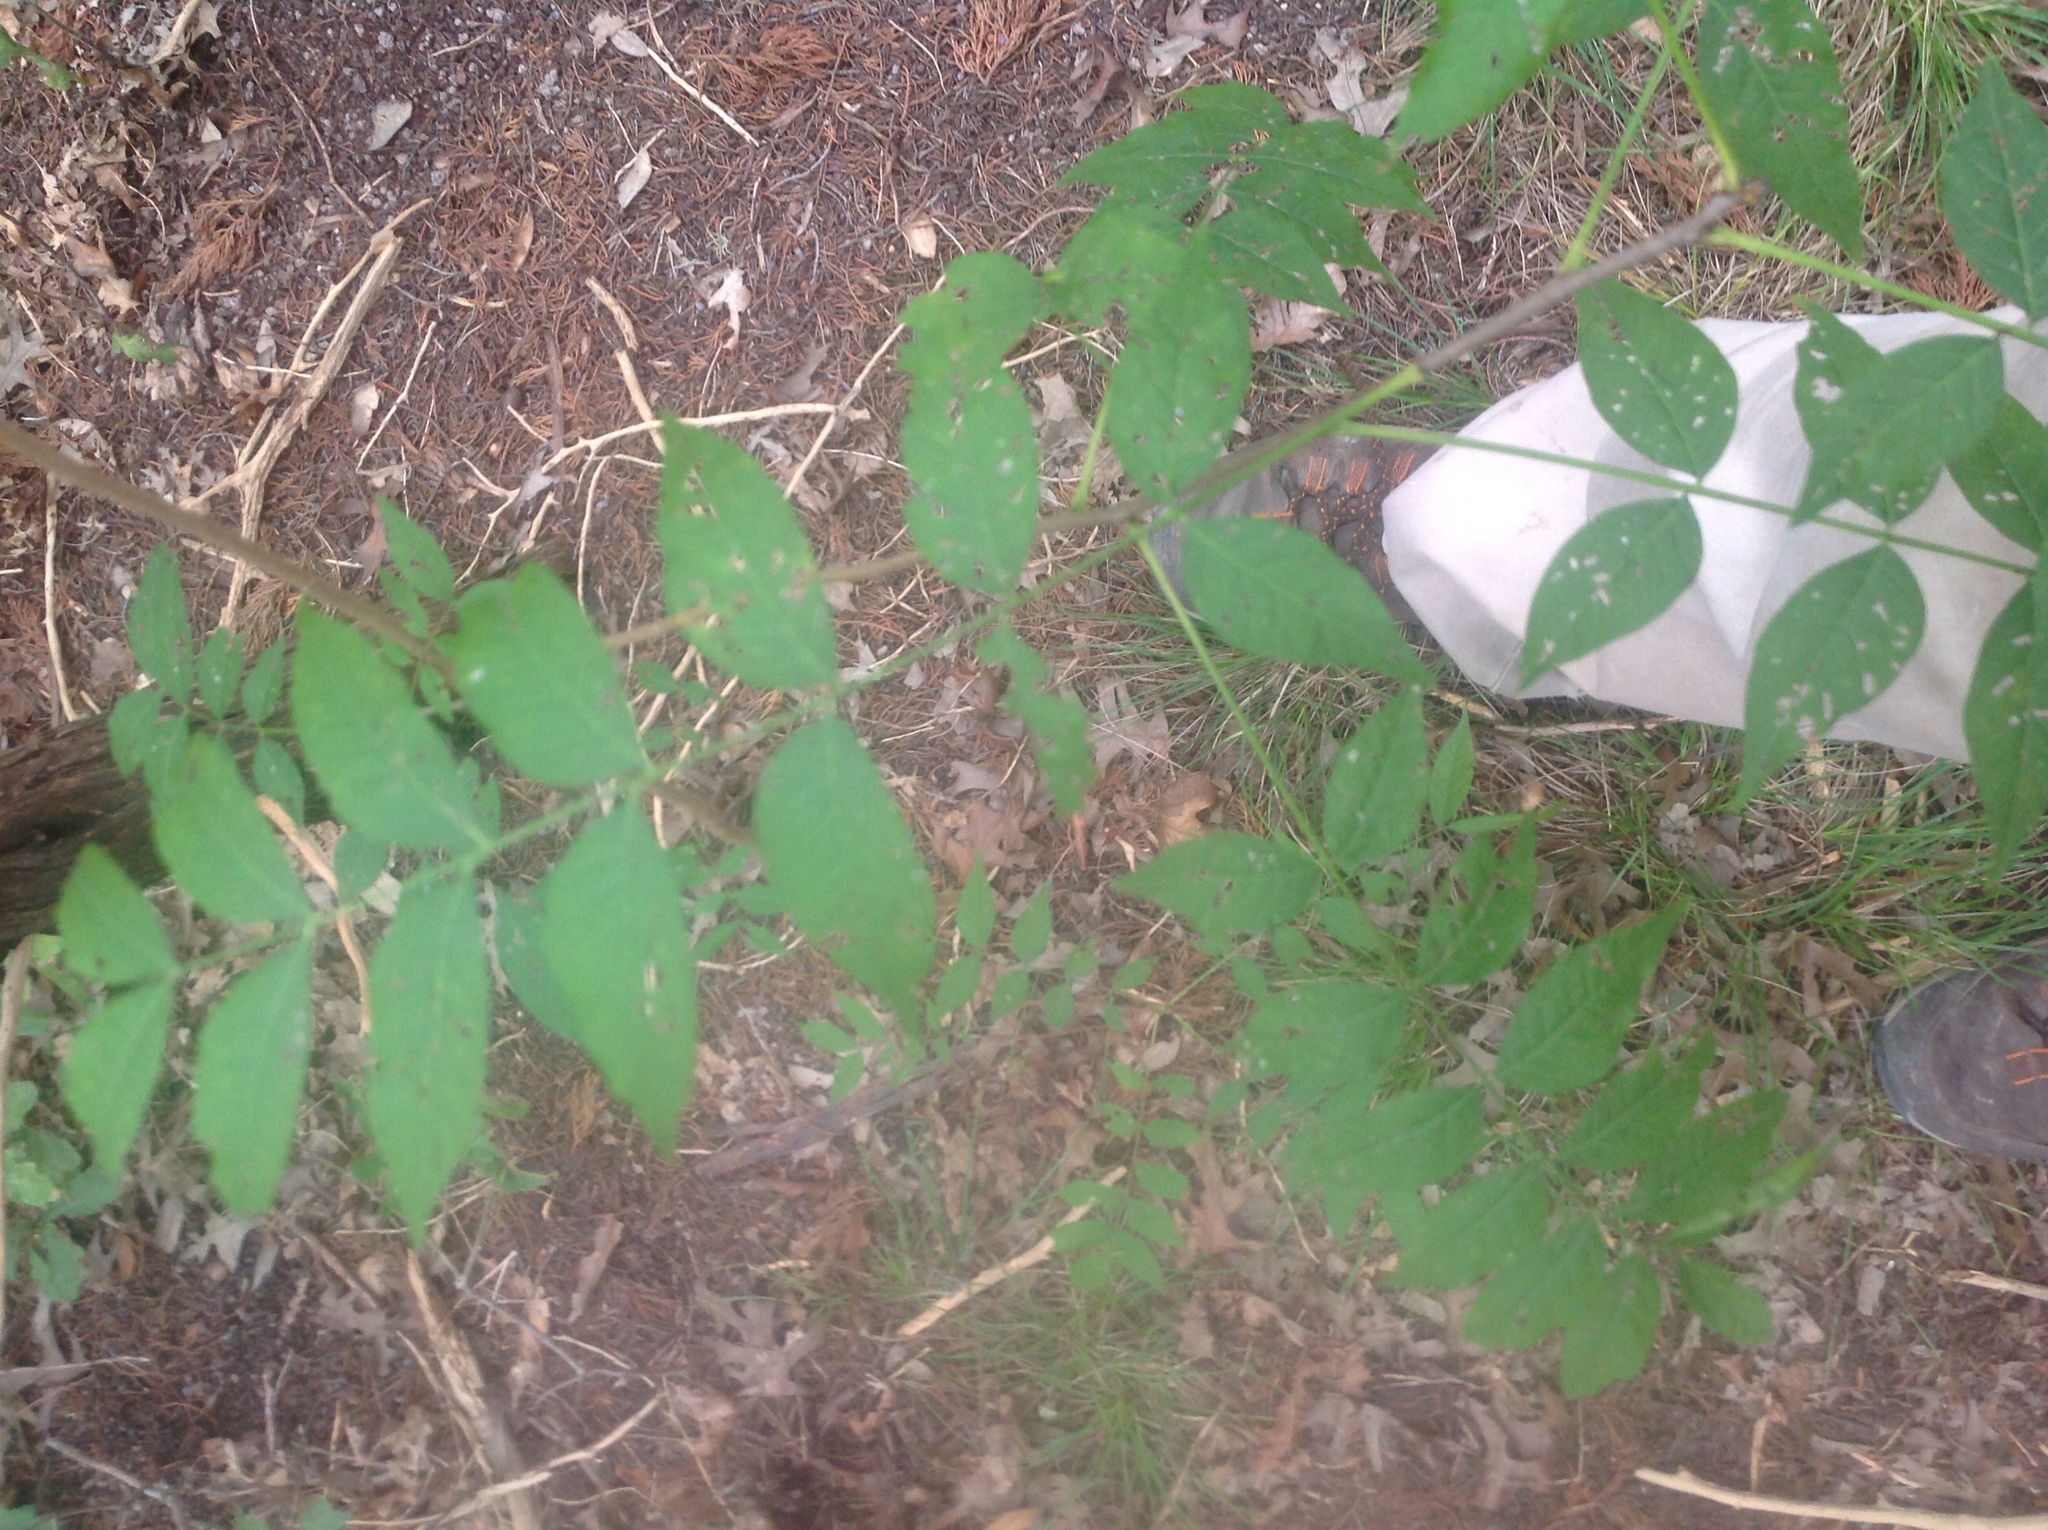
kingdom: Plantae
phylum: Tracheophyta
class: Magnoliopsida
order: Sapindales
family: Anacardiaceae
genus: Pistacia
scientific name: Pistacia chinensis
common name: Chinese pistache
